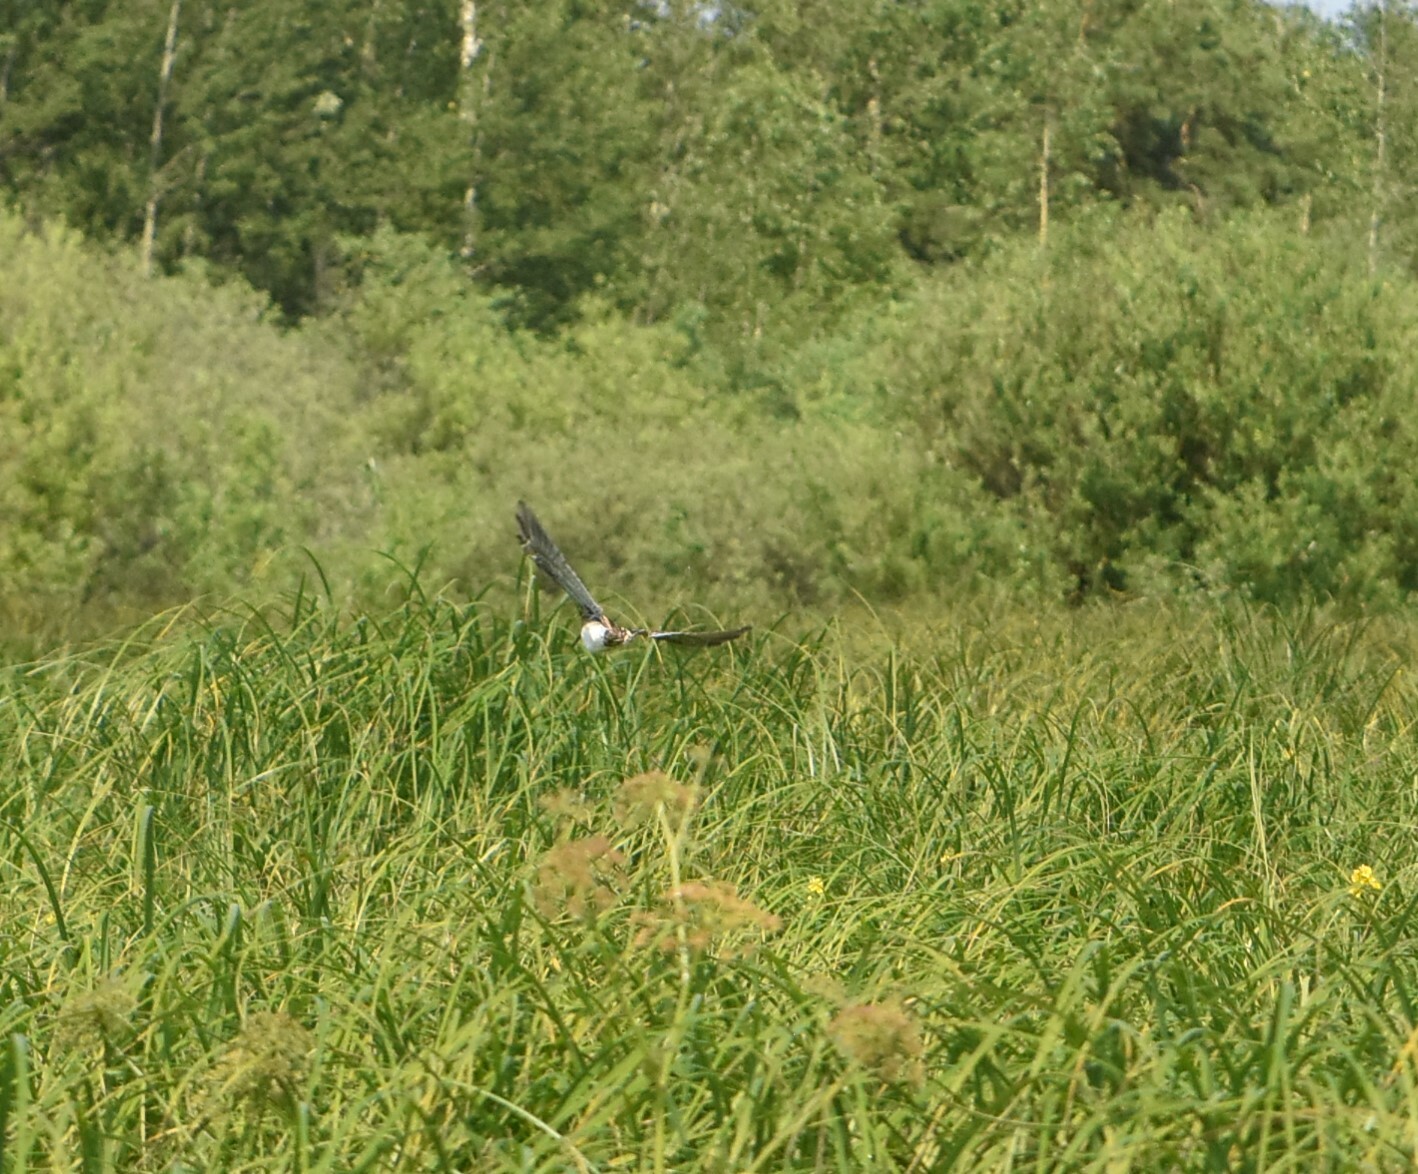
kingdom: Animalia
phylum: Chordata
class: Aves
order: Charadriiformes
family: Scolopacidae
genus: Gallinago
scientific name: Gallinago gallinago
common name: Common snipe
